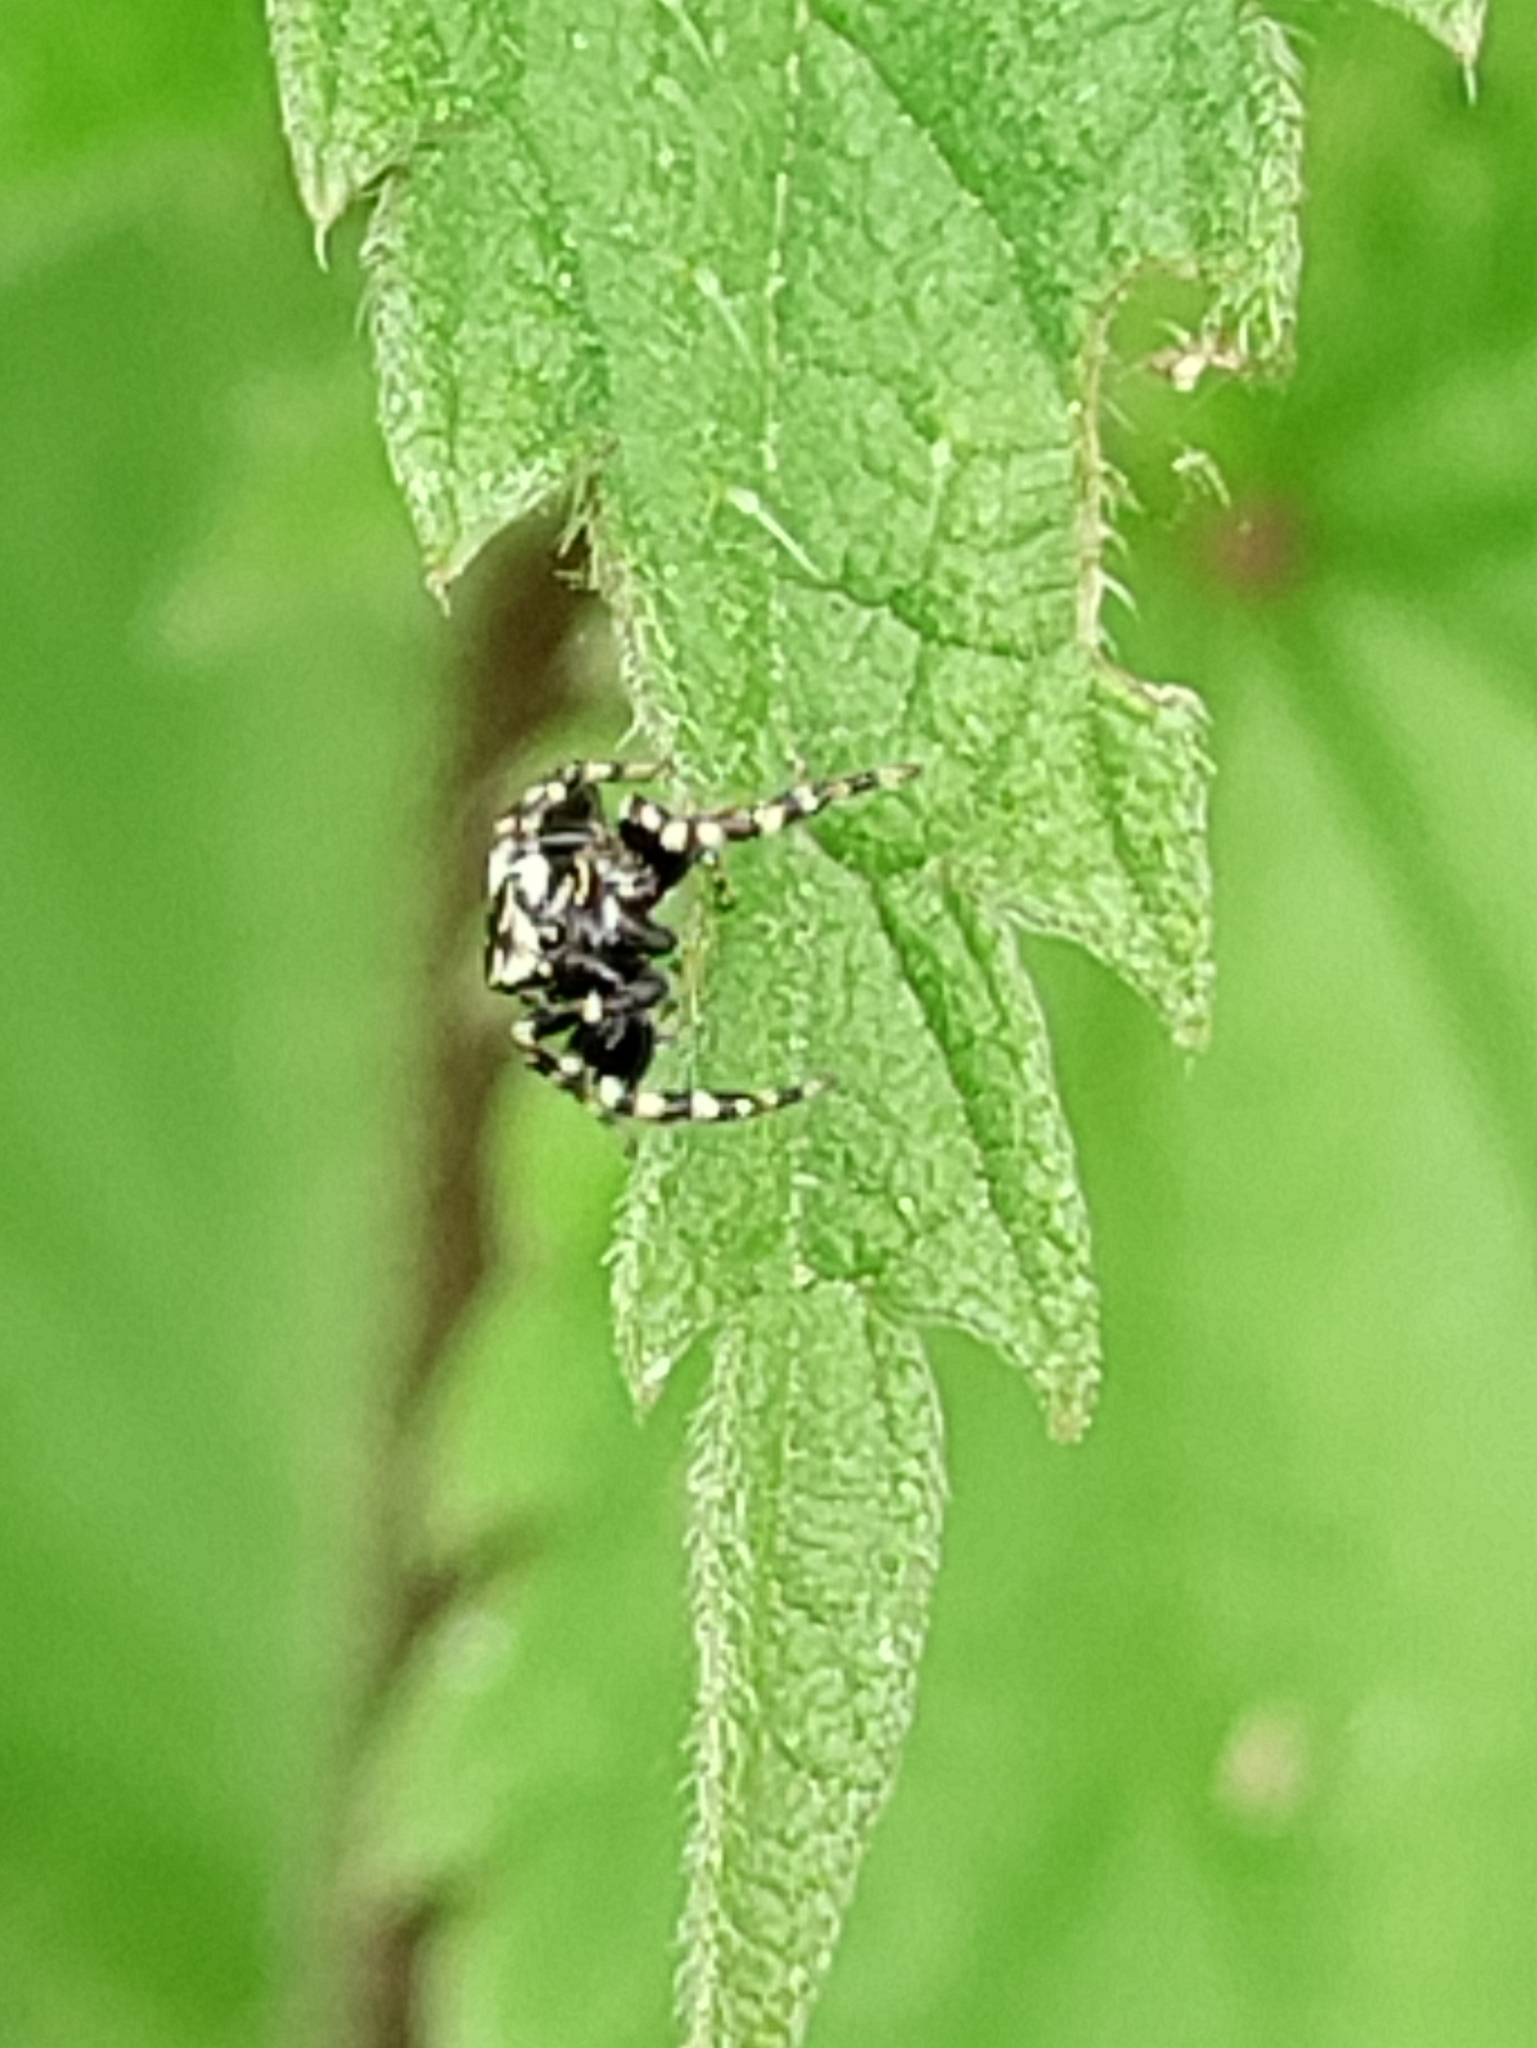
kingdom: Animalia
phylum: Arthropoda
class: Arachnida
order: Araneae
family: Salticidae
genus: Pelegrina
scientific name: Pelegrina galathea
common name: Jumping spiders
